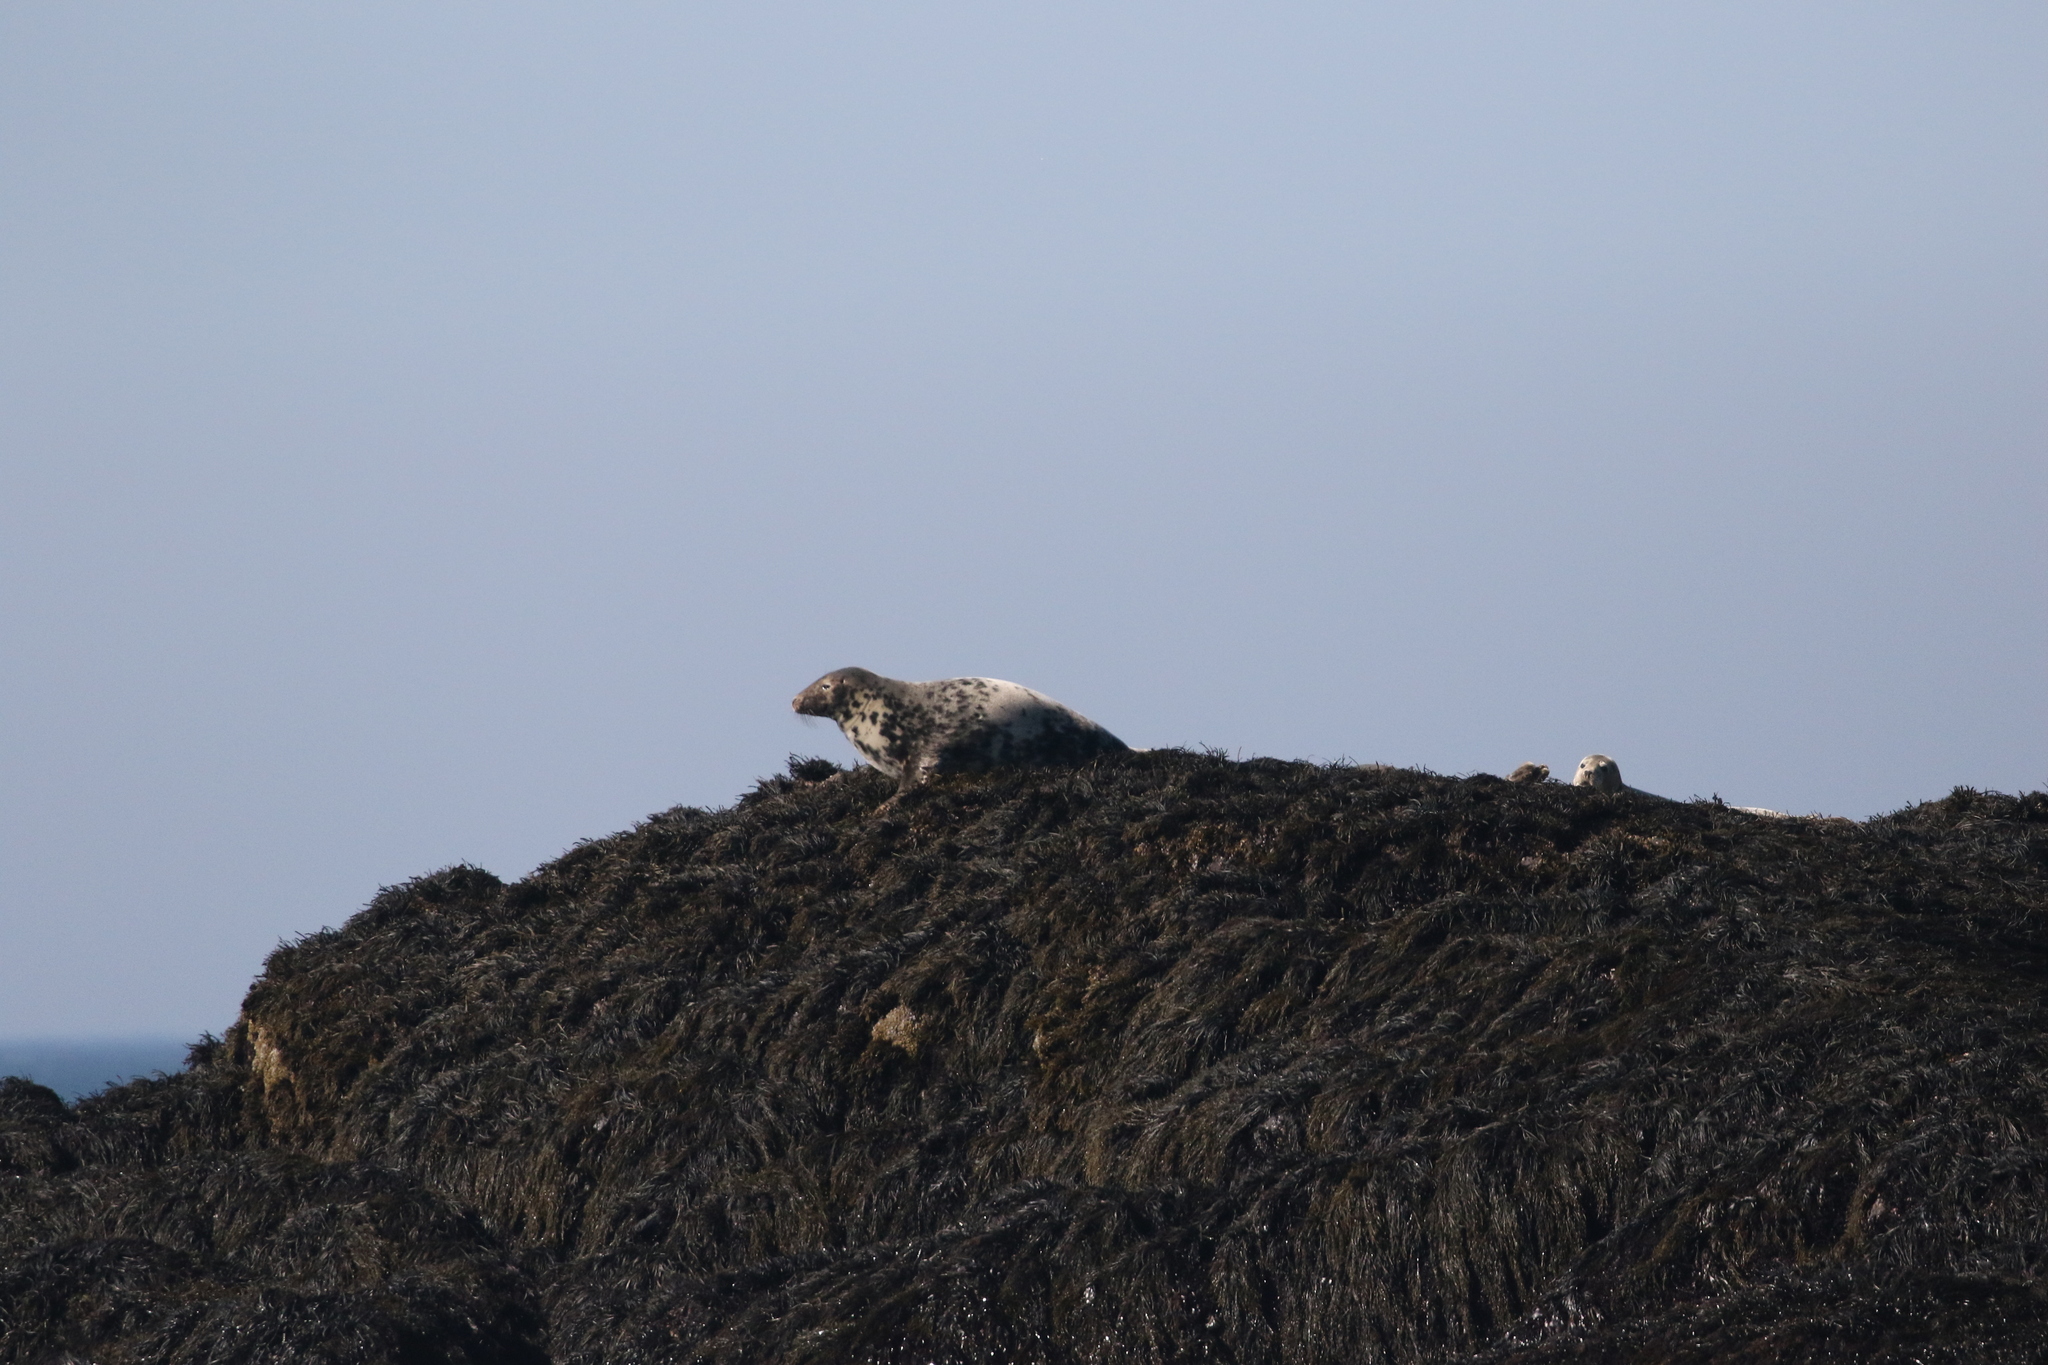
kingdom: Animalia
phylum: Chordata
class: Mammalia
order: Carnivora
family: Phocidae
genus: Halichoerus
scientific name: Halichoerus grypus
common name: Grey seal
